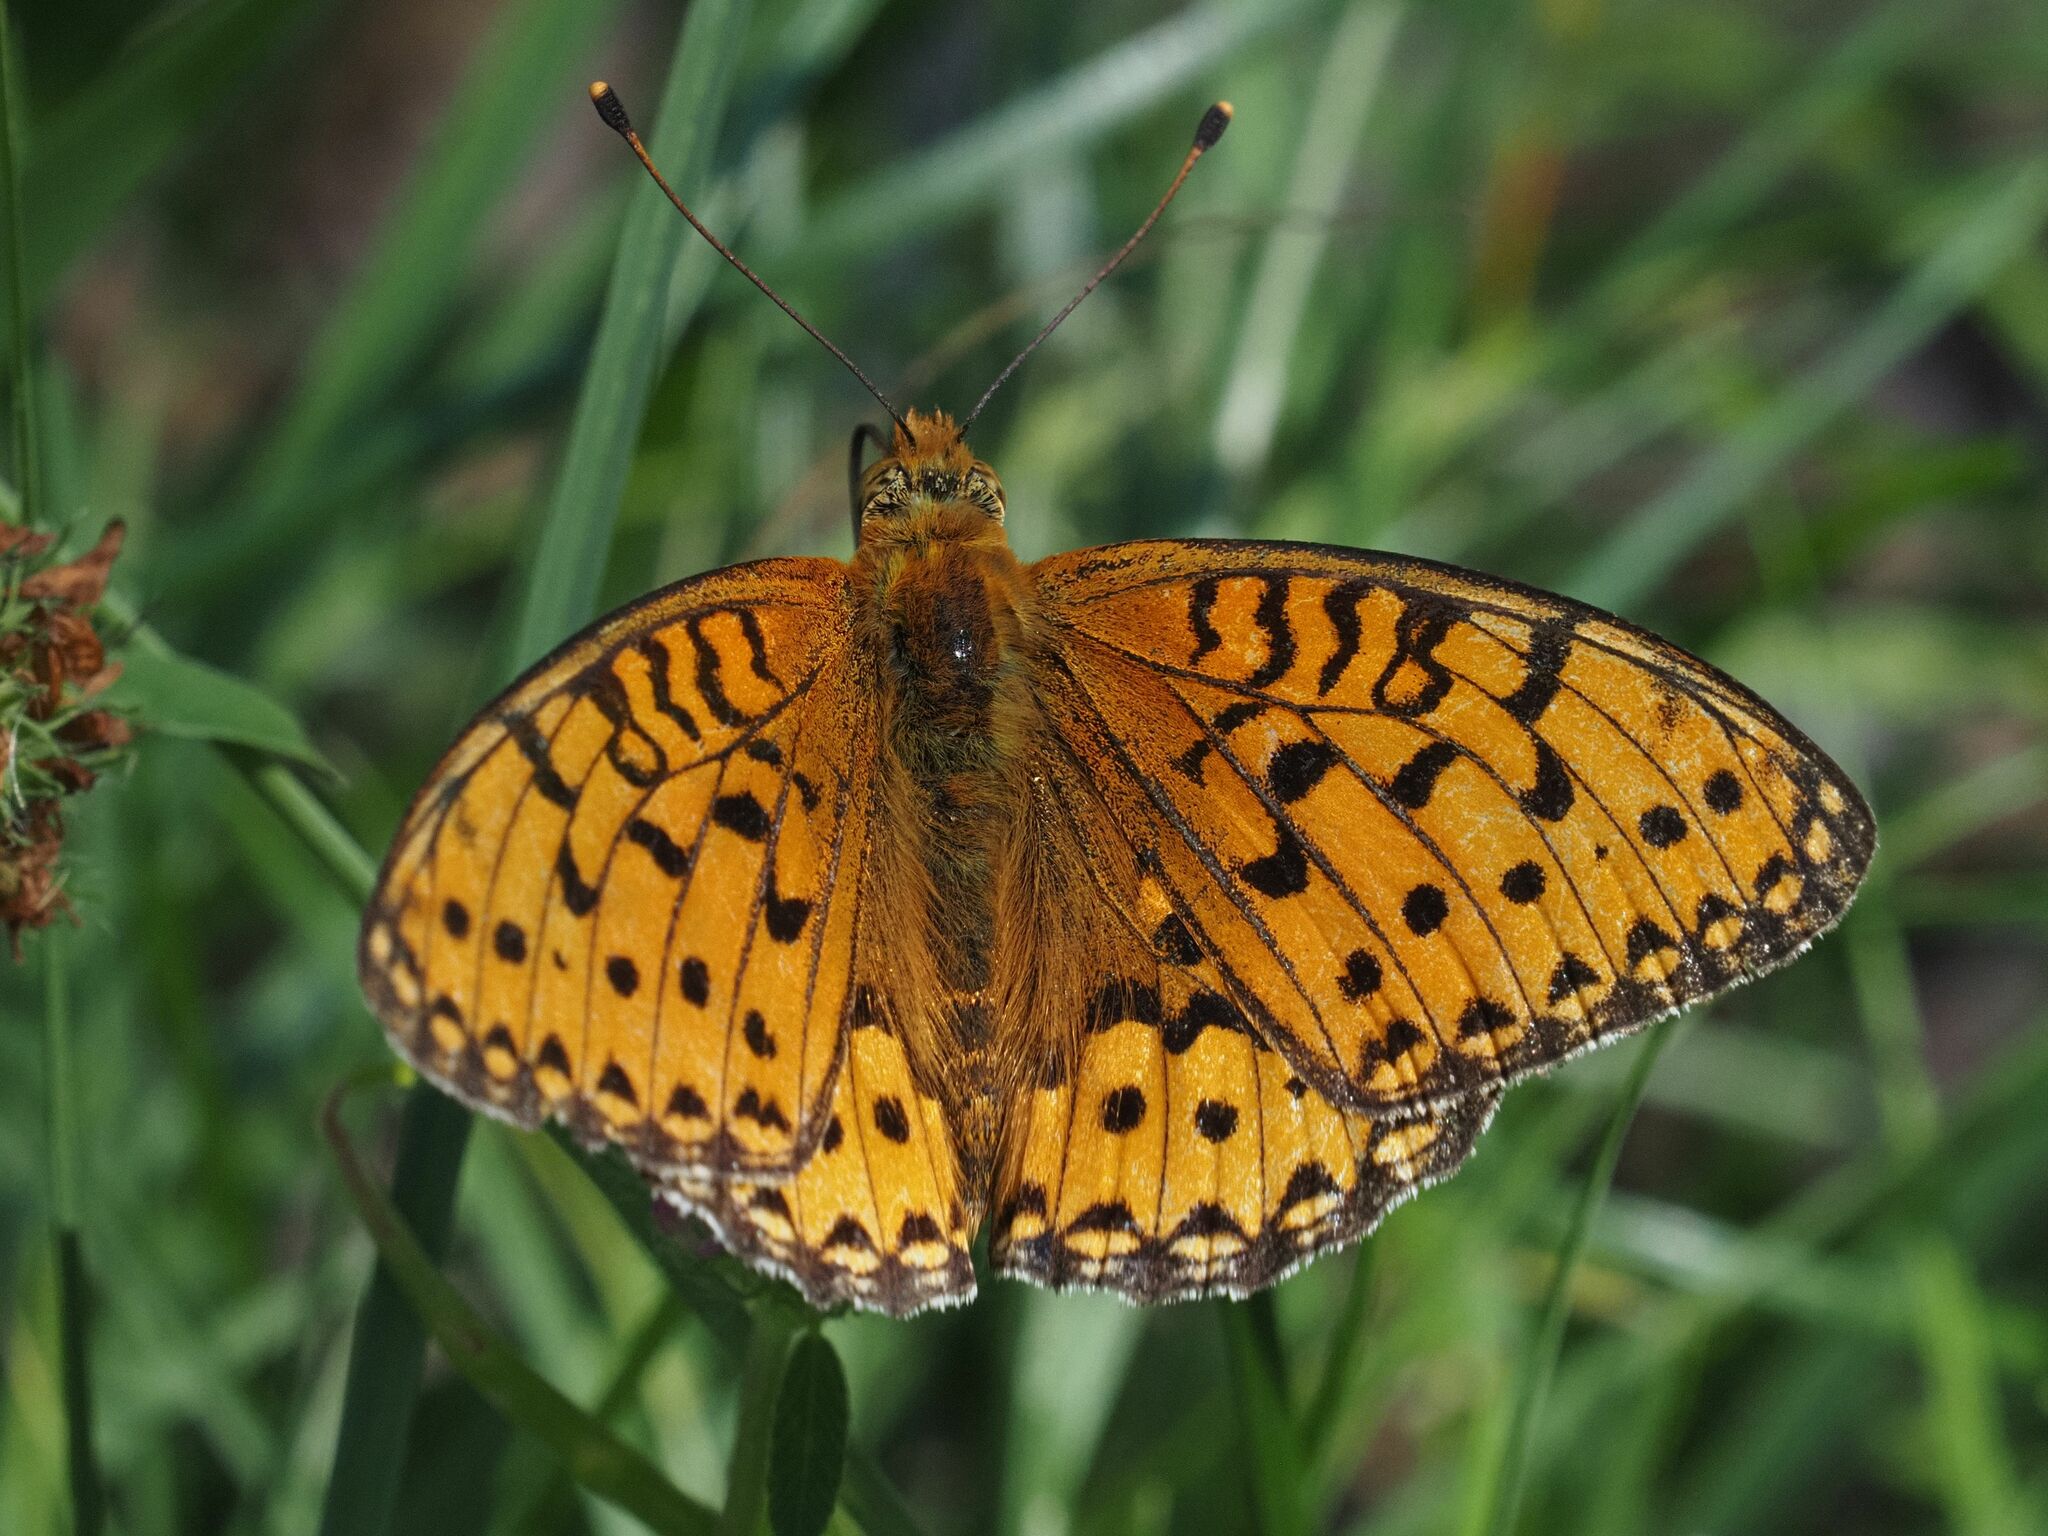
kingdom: Animalia
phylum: Arthropoda
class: Insecta
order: Lepidoptera
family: Nymphalidae
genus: Speyeria
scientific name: Speyeria aglaja
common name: Dark green fritillary
